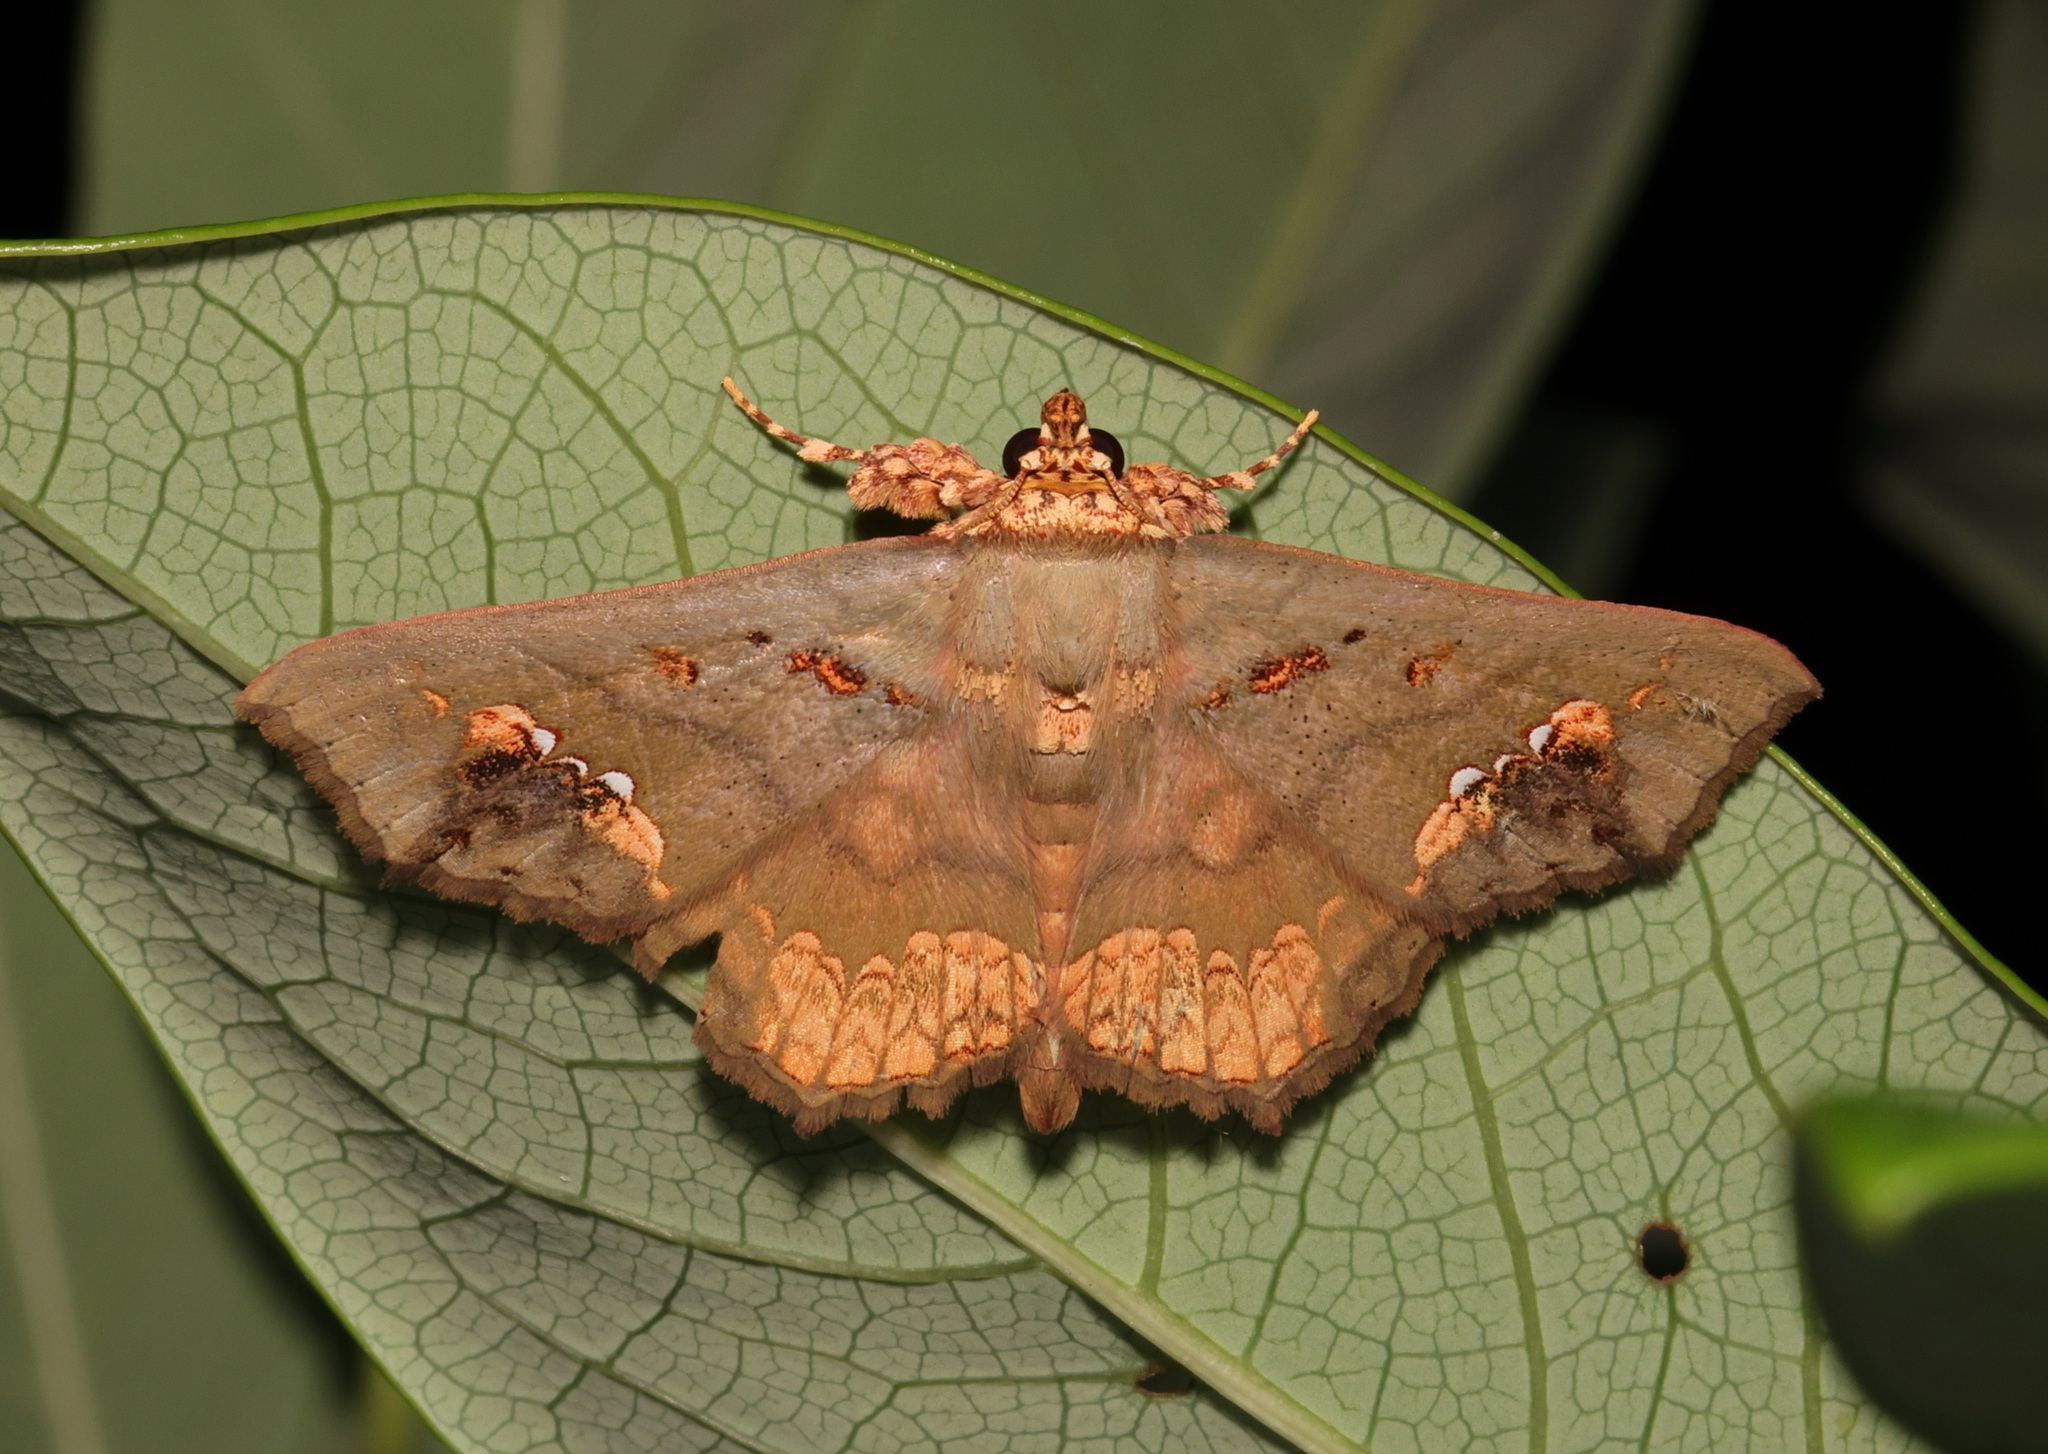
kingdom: Animalia
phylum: Arthropoda
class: Insecta
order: Lepidoptera
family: Erebidae
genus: Lopharthrum
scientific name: Lopharthrum comprimens
